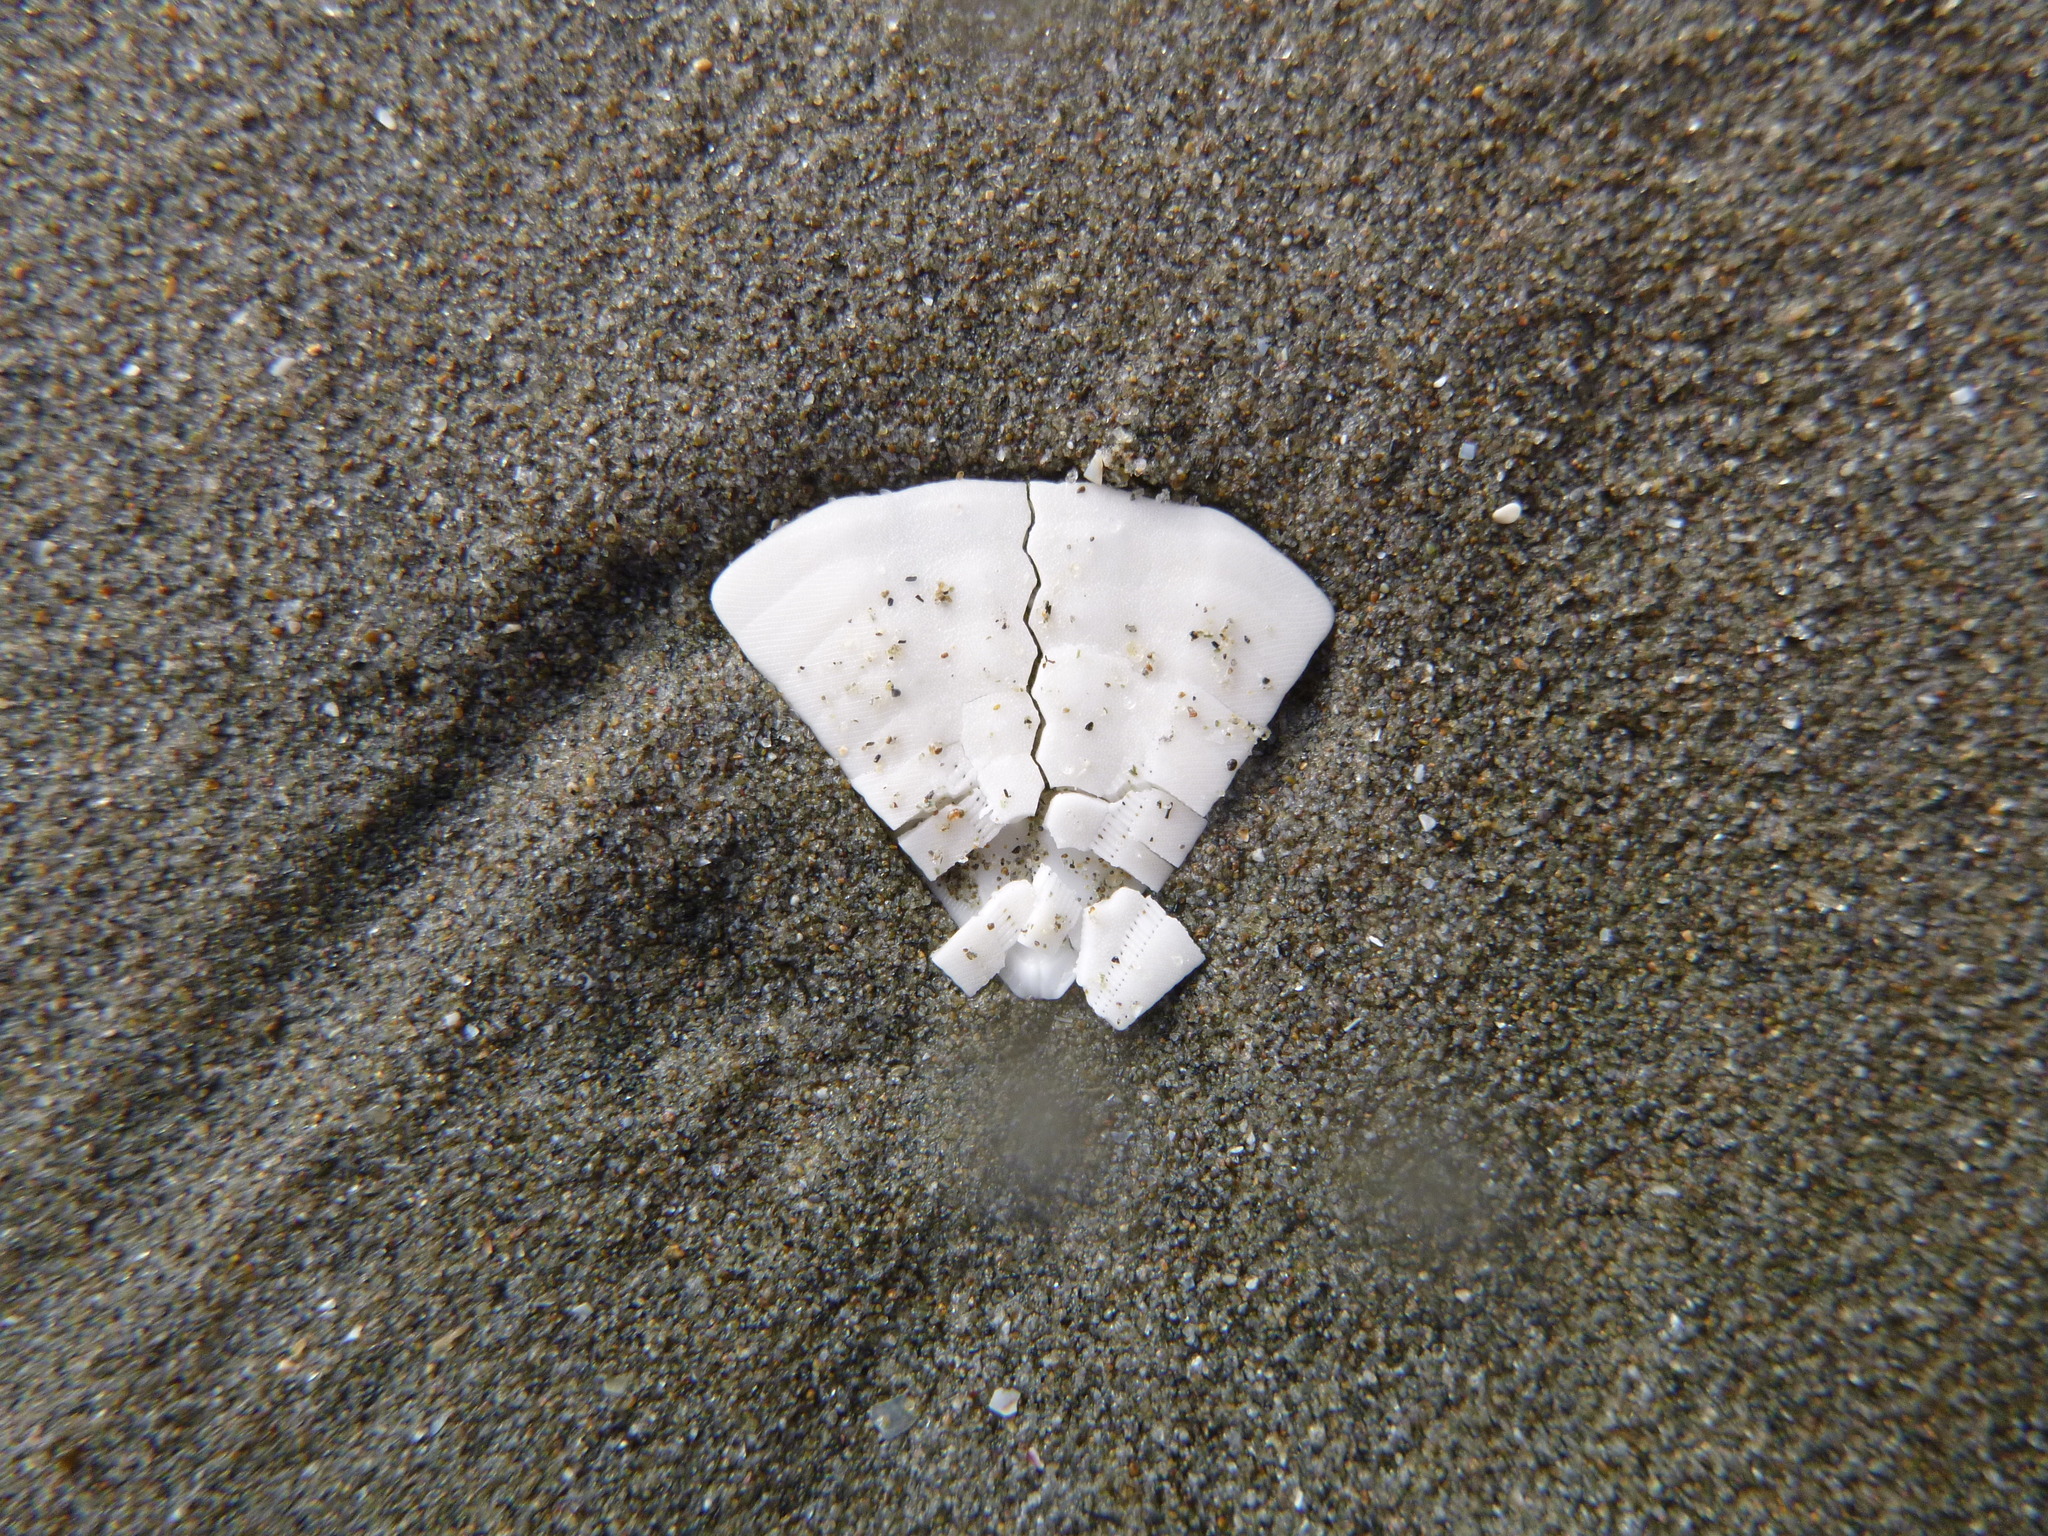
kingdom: Animalia
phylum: Echinodermata
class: Echinoidea
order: Clypeasteroida
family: Clypeasteridae
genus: Fellaster
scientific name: Fellaster zelandiae
